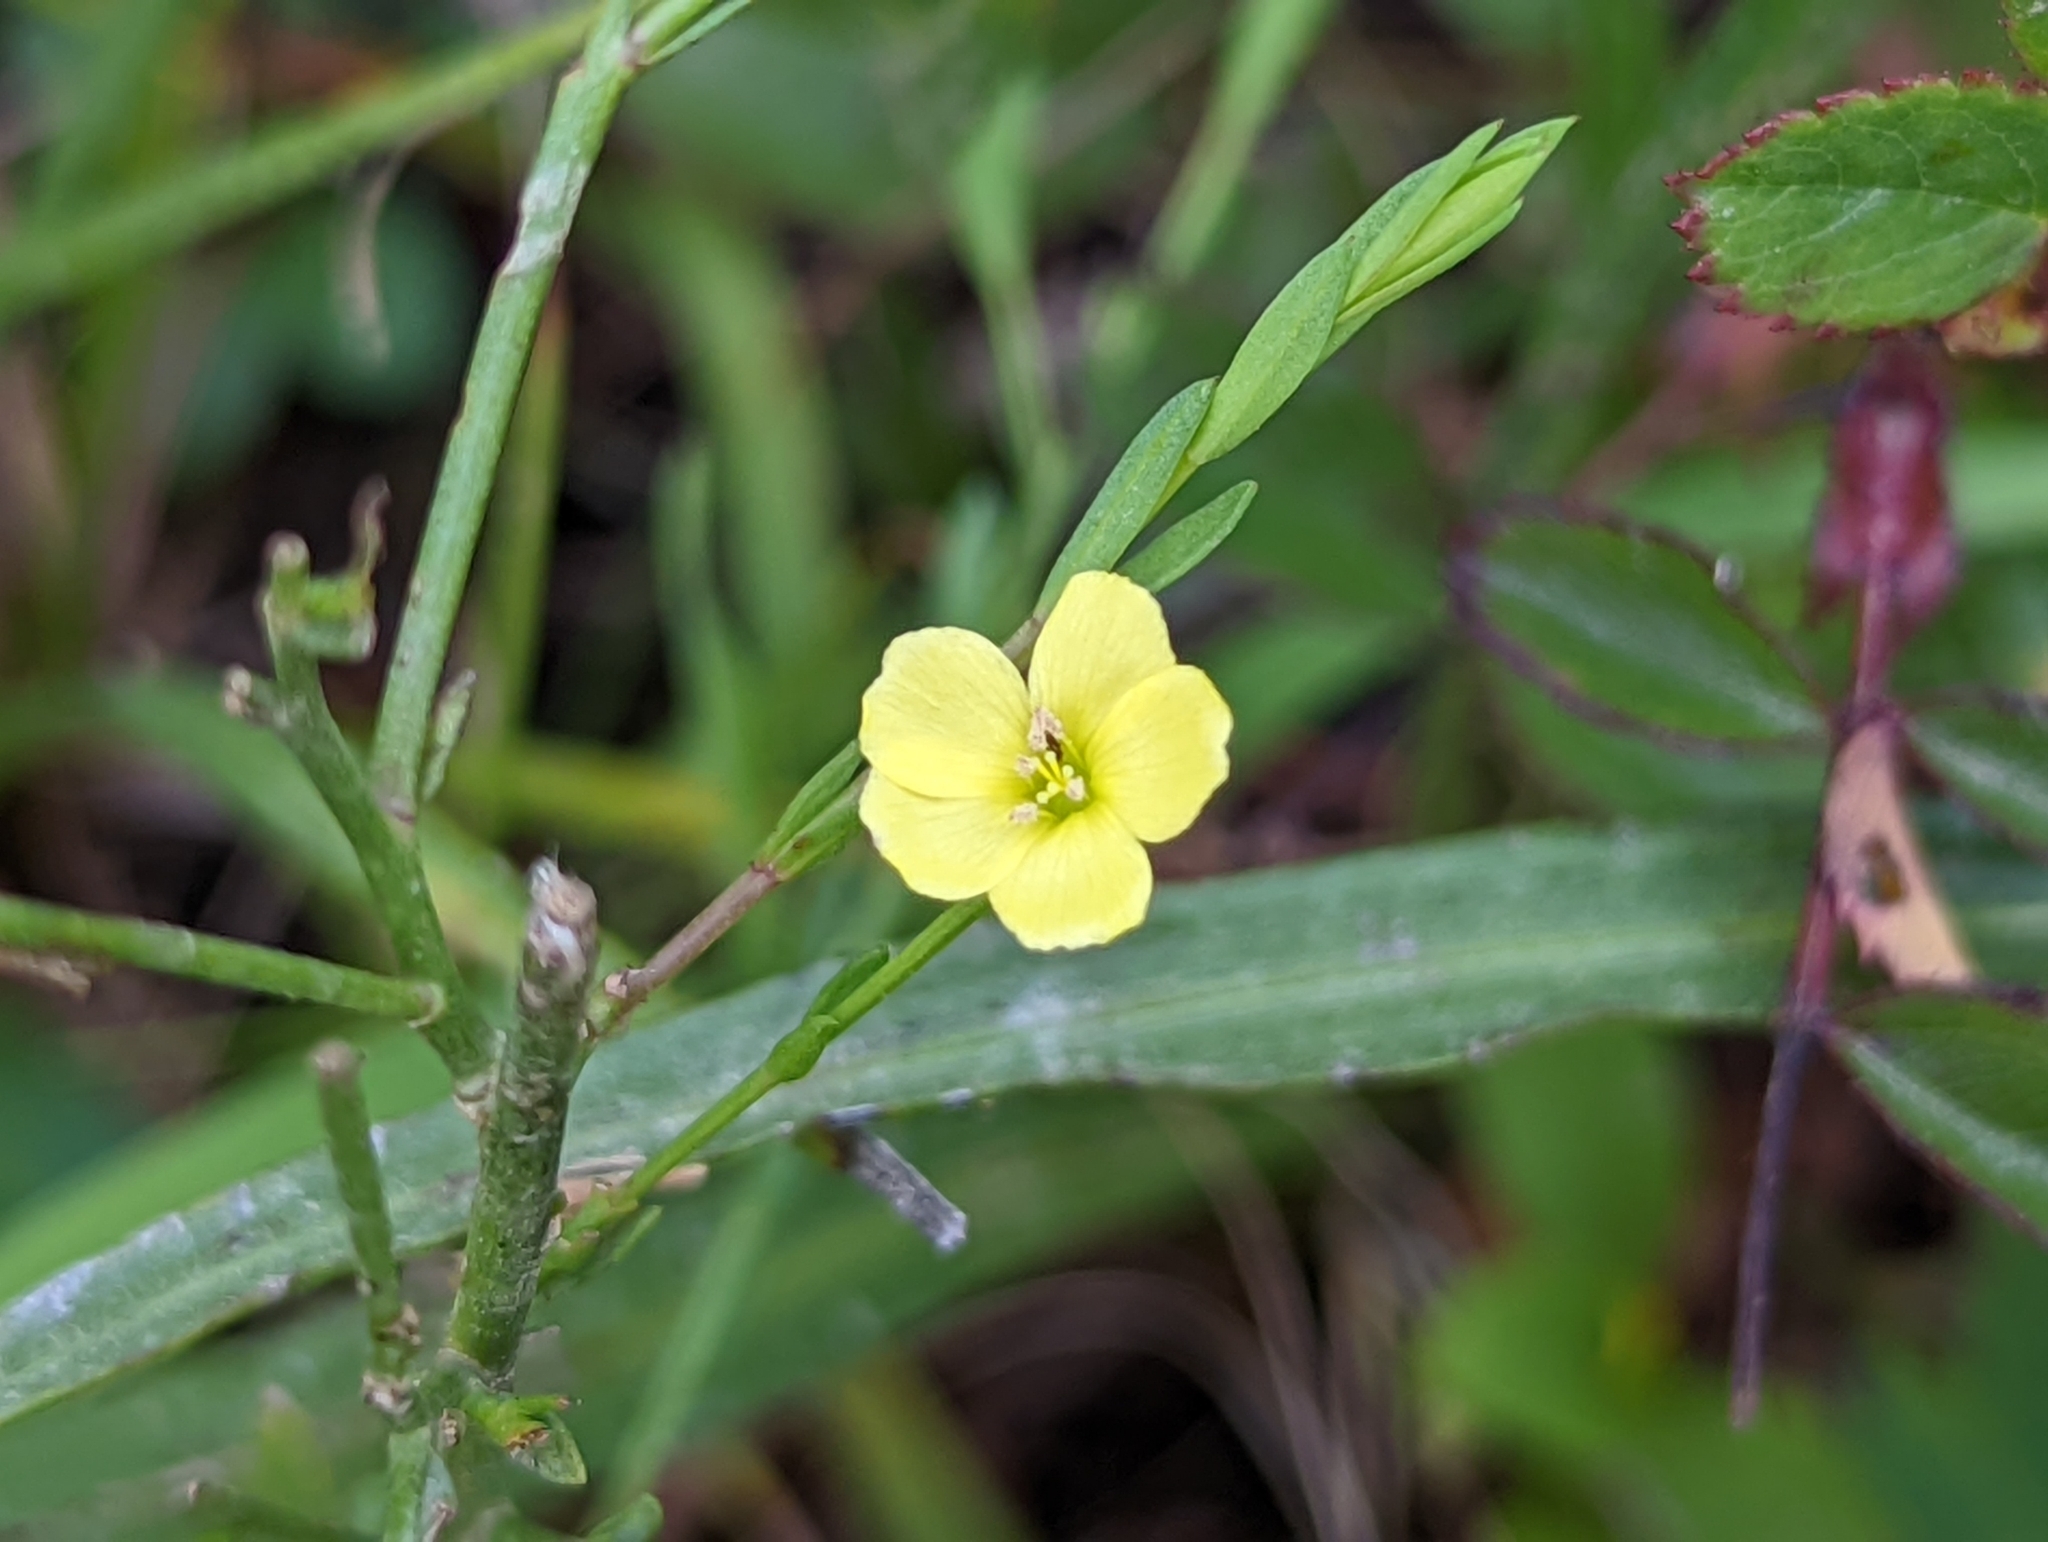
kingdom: Plantae
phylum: Tracheophyta
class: Magnoliopsida
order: Malpighiales
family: Linaceae
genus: Linum
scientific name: Linum medium
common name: Stiff yellow flax
